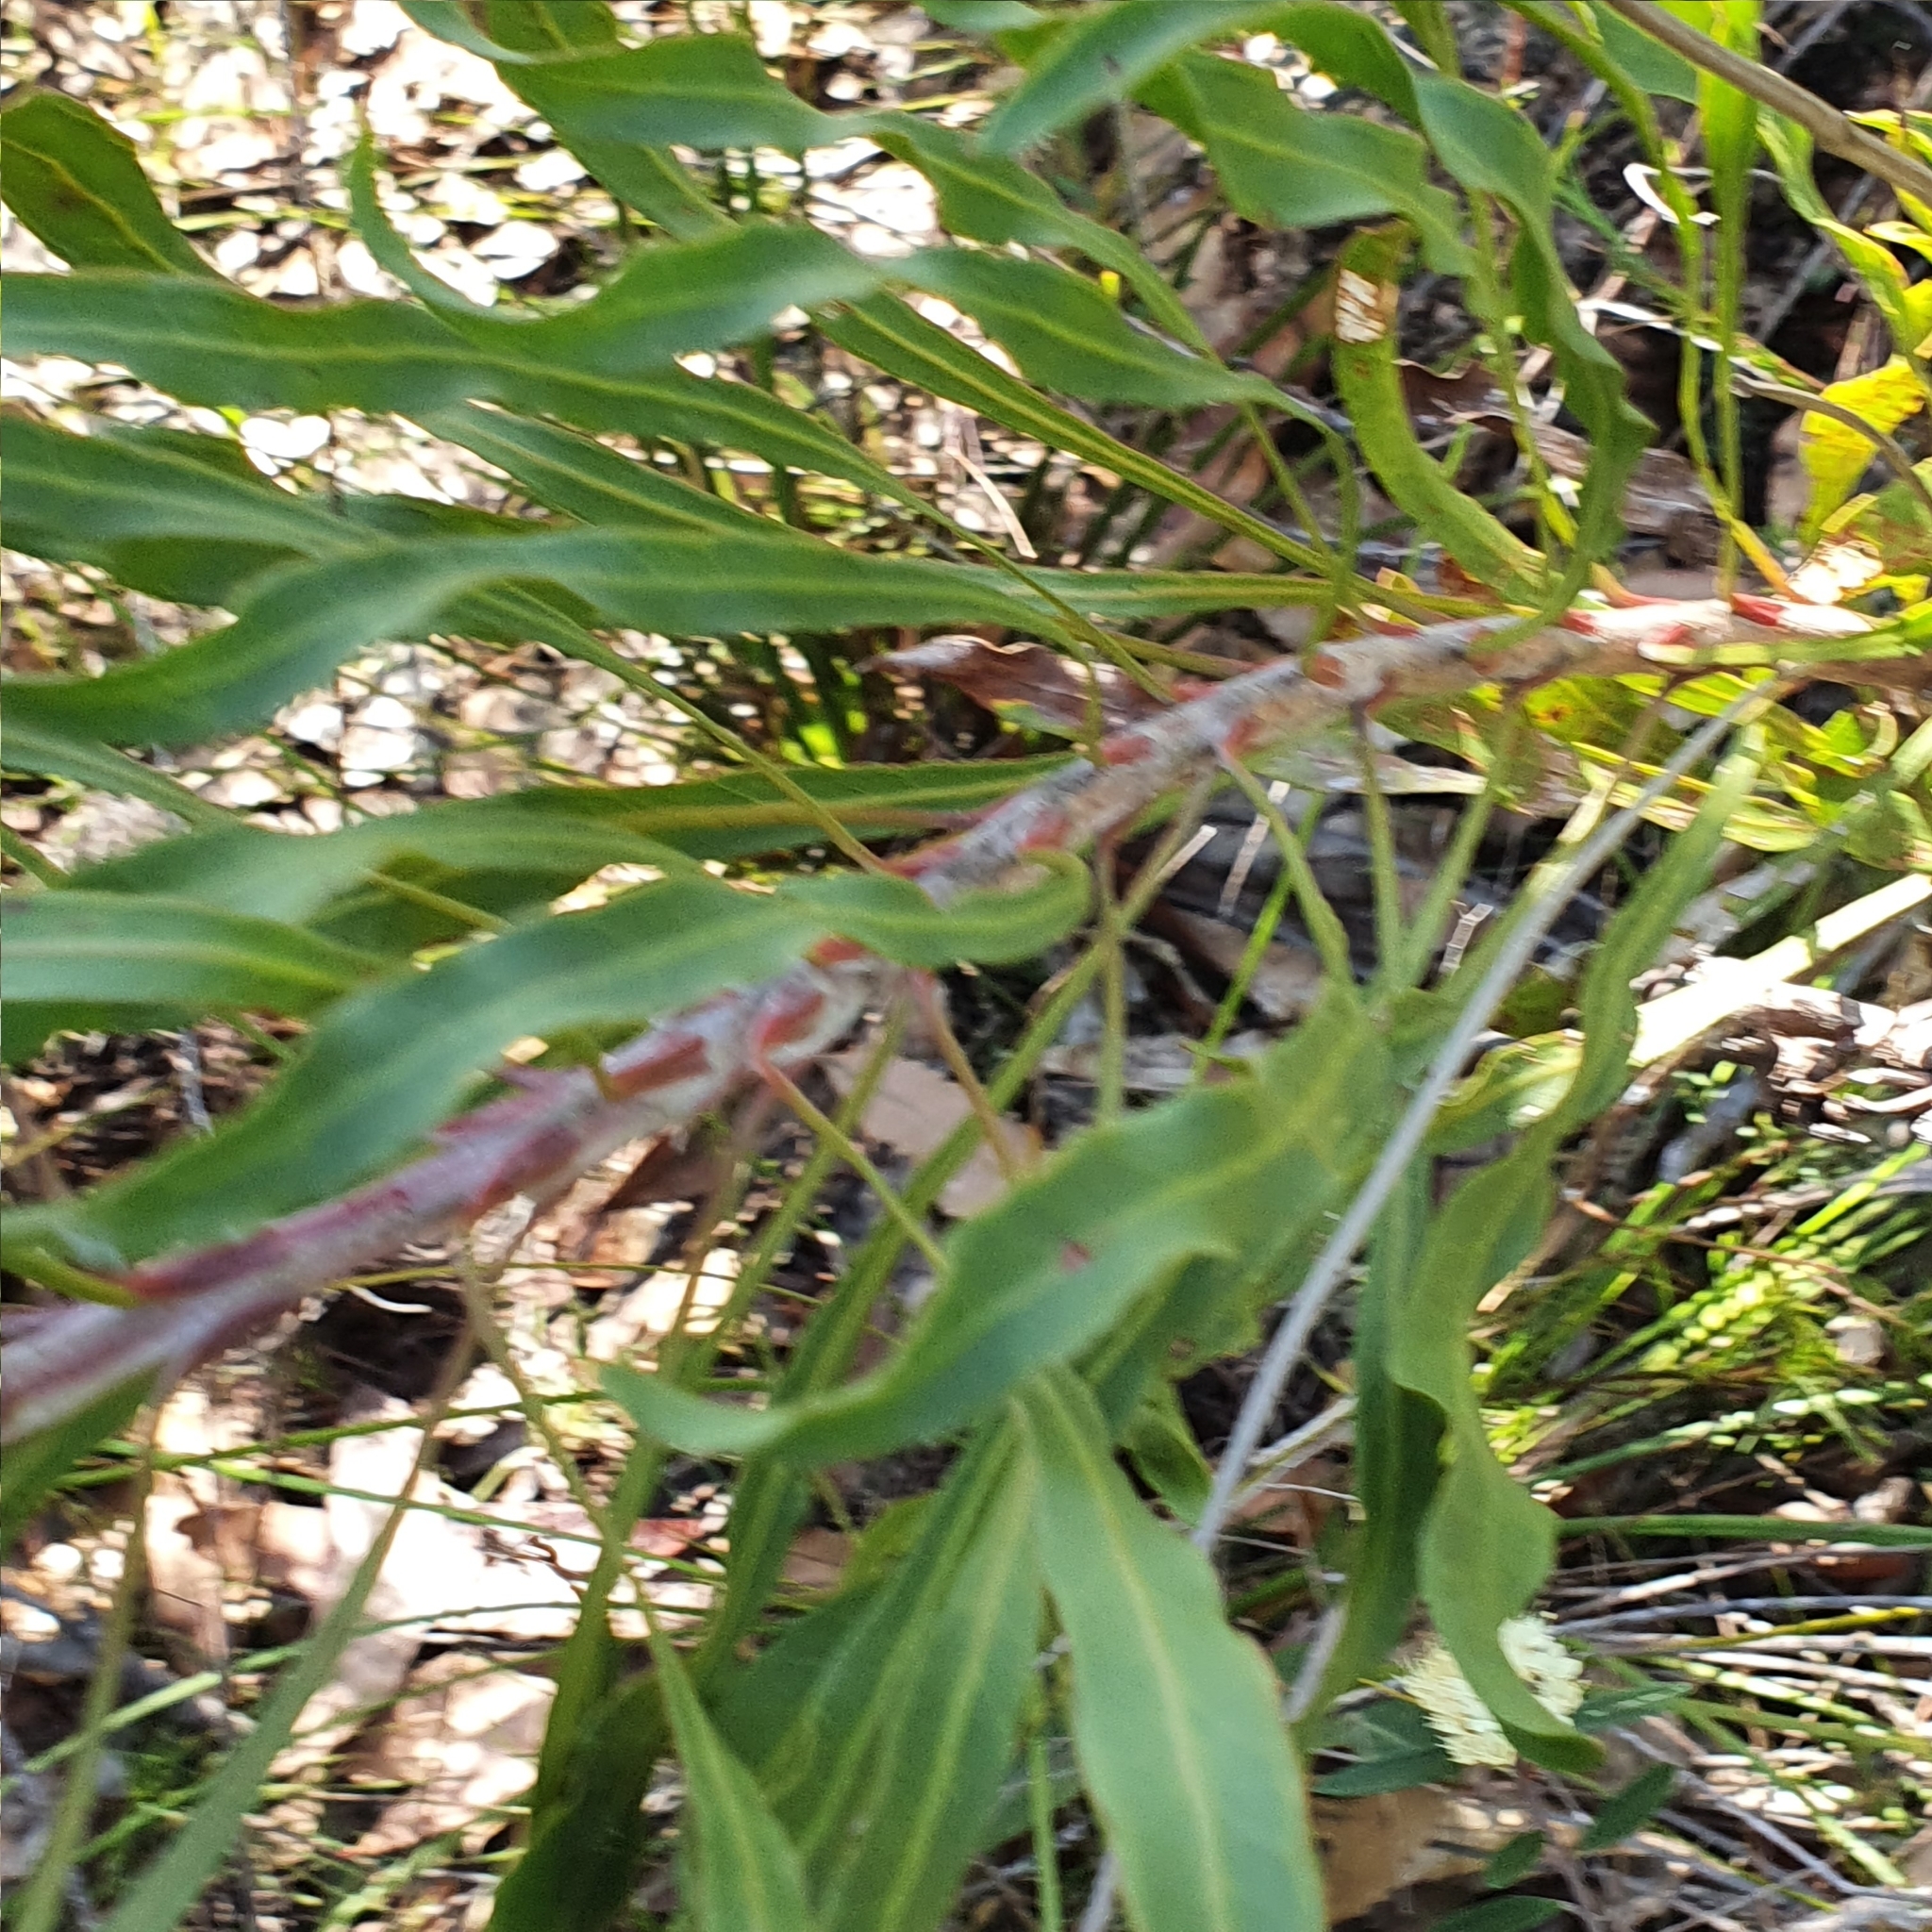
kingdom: Plantae
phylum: Tracheophyta
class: Magnoliopsida
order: Proteales
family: Proteaceae
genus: Conospermum
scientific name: Conospermum longifolium
